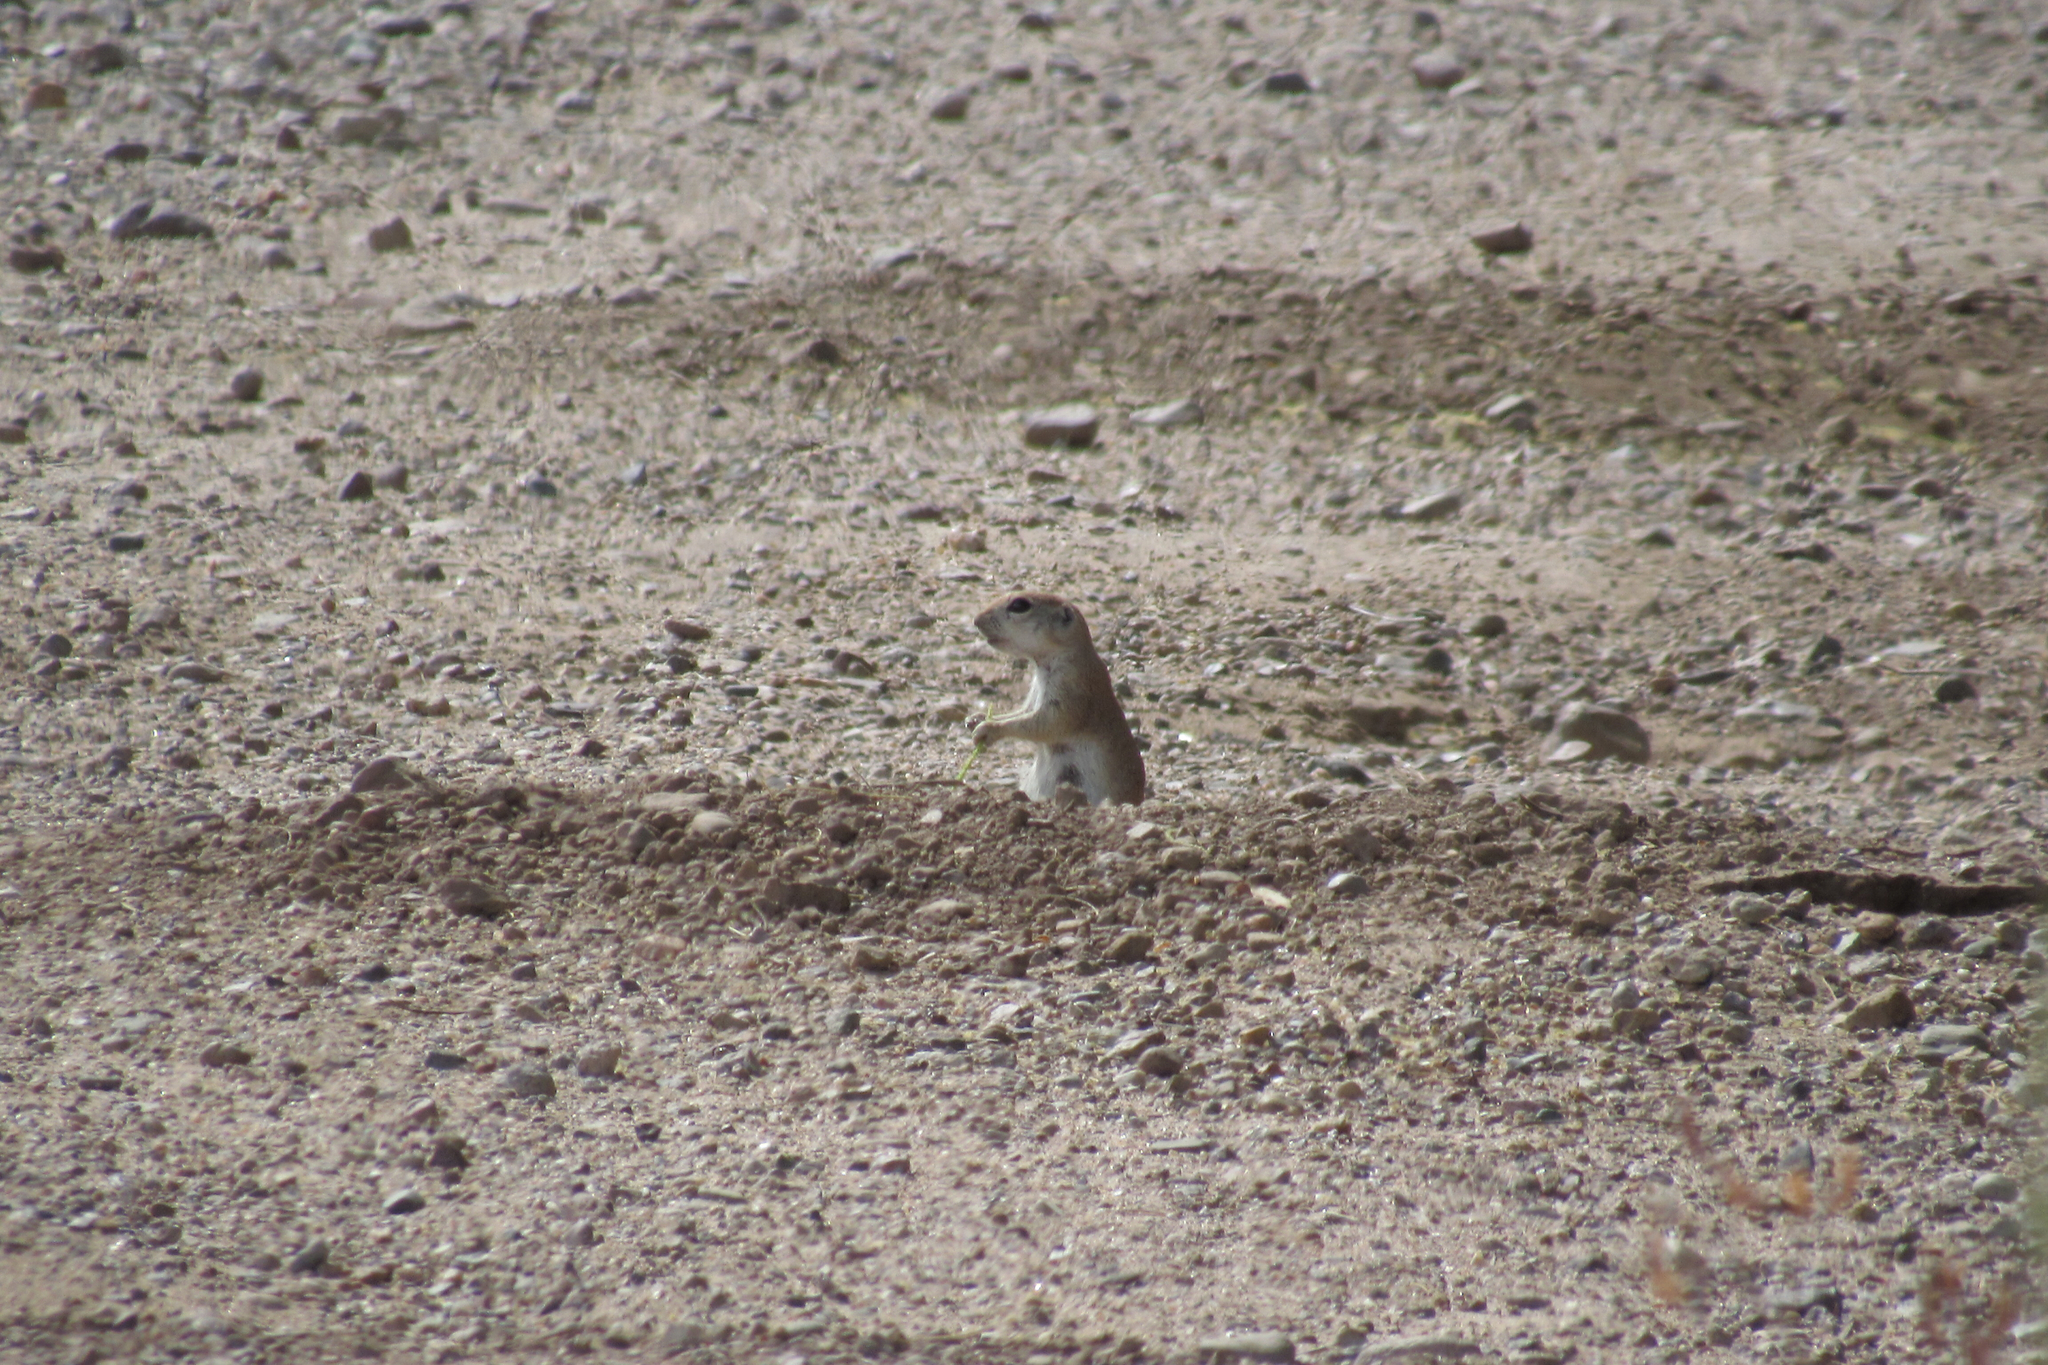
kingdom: Animalia
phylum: Chordata
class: Mammalia
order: Rodentia
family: Sciuridae
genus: Xerospermophilus
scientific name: Xerospermophilus tereticaudus
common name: Round-tailed ground squirrel
